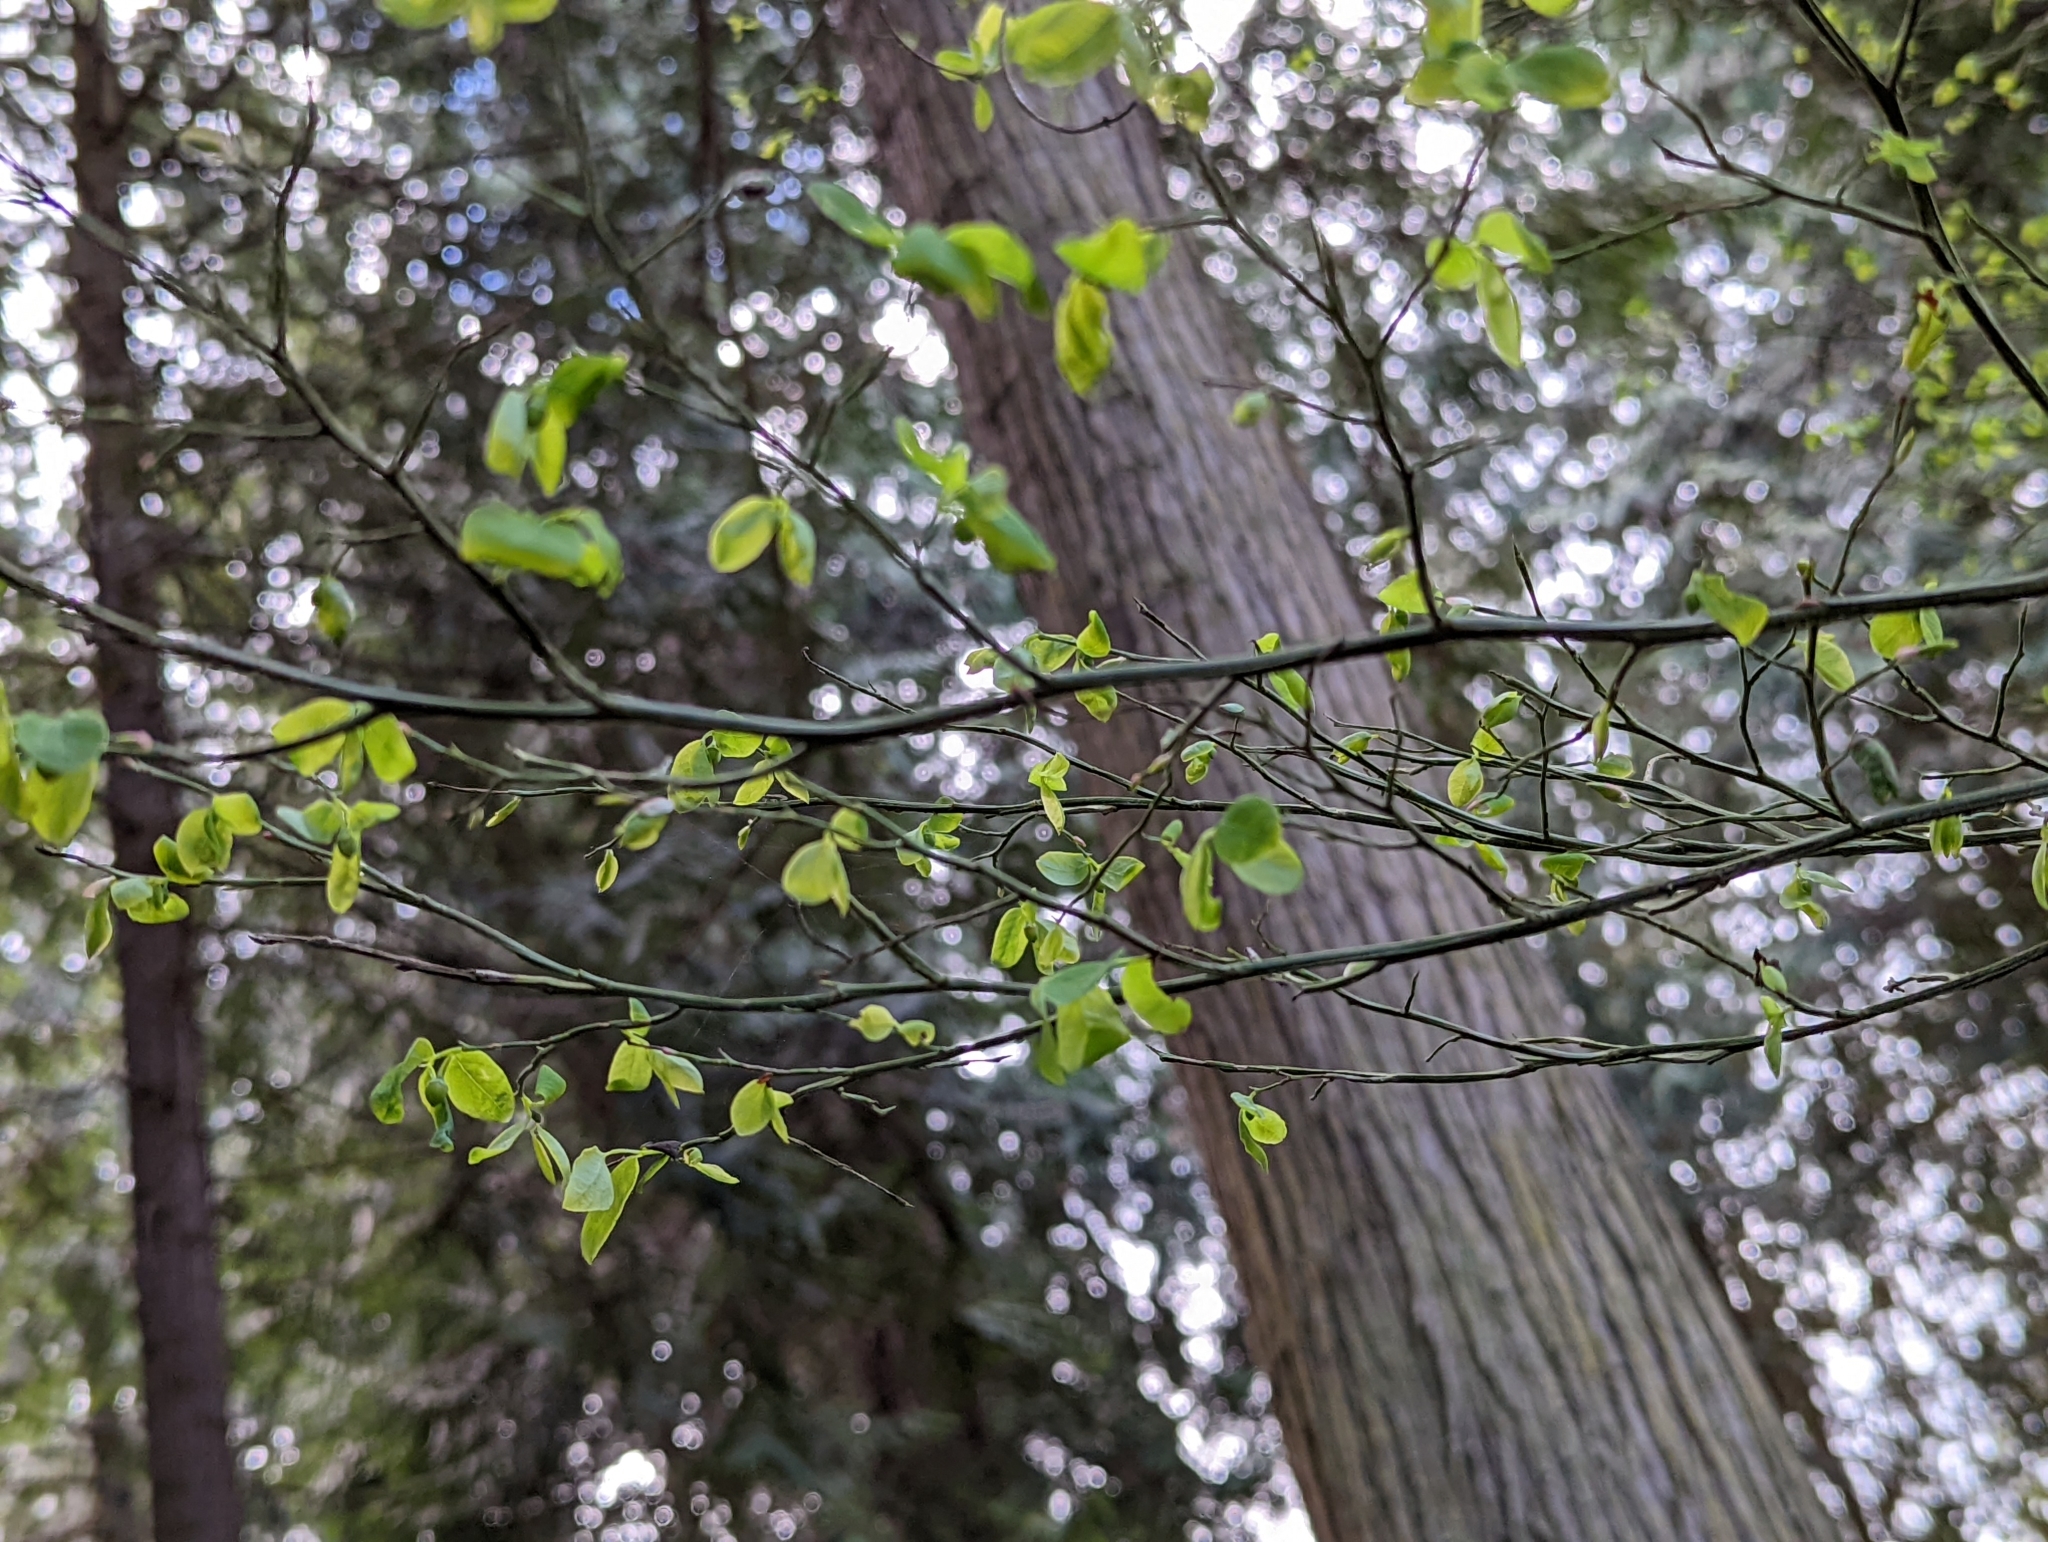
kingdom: Plantae
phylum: Tracheophyta
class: Magnoliopsida
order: Ericales
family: Ericaceae
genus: Vaccinium
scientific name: Vaccinium parvifolium
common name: Red-huckleberry
